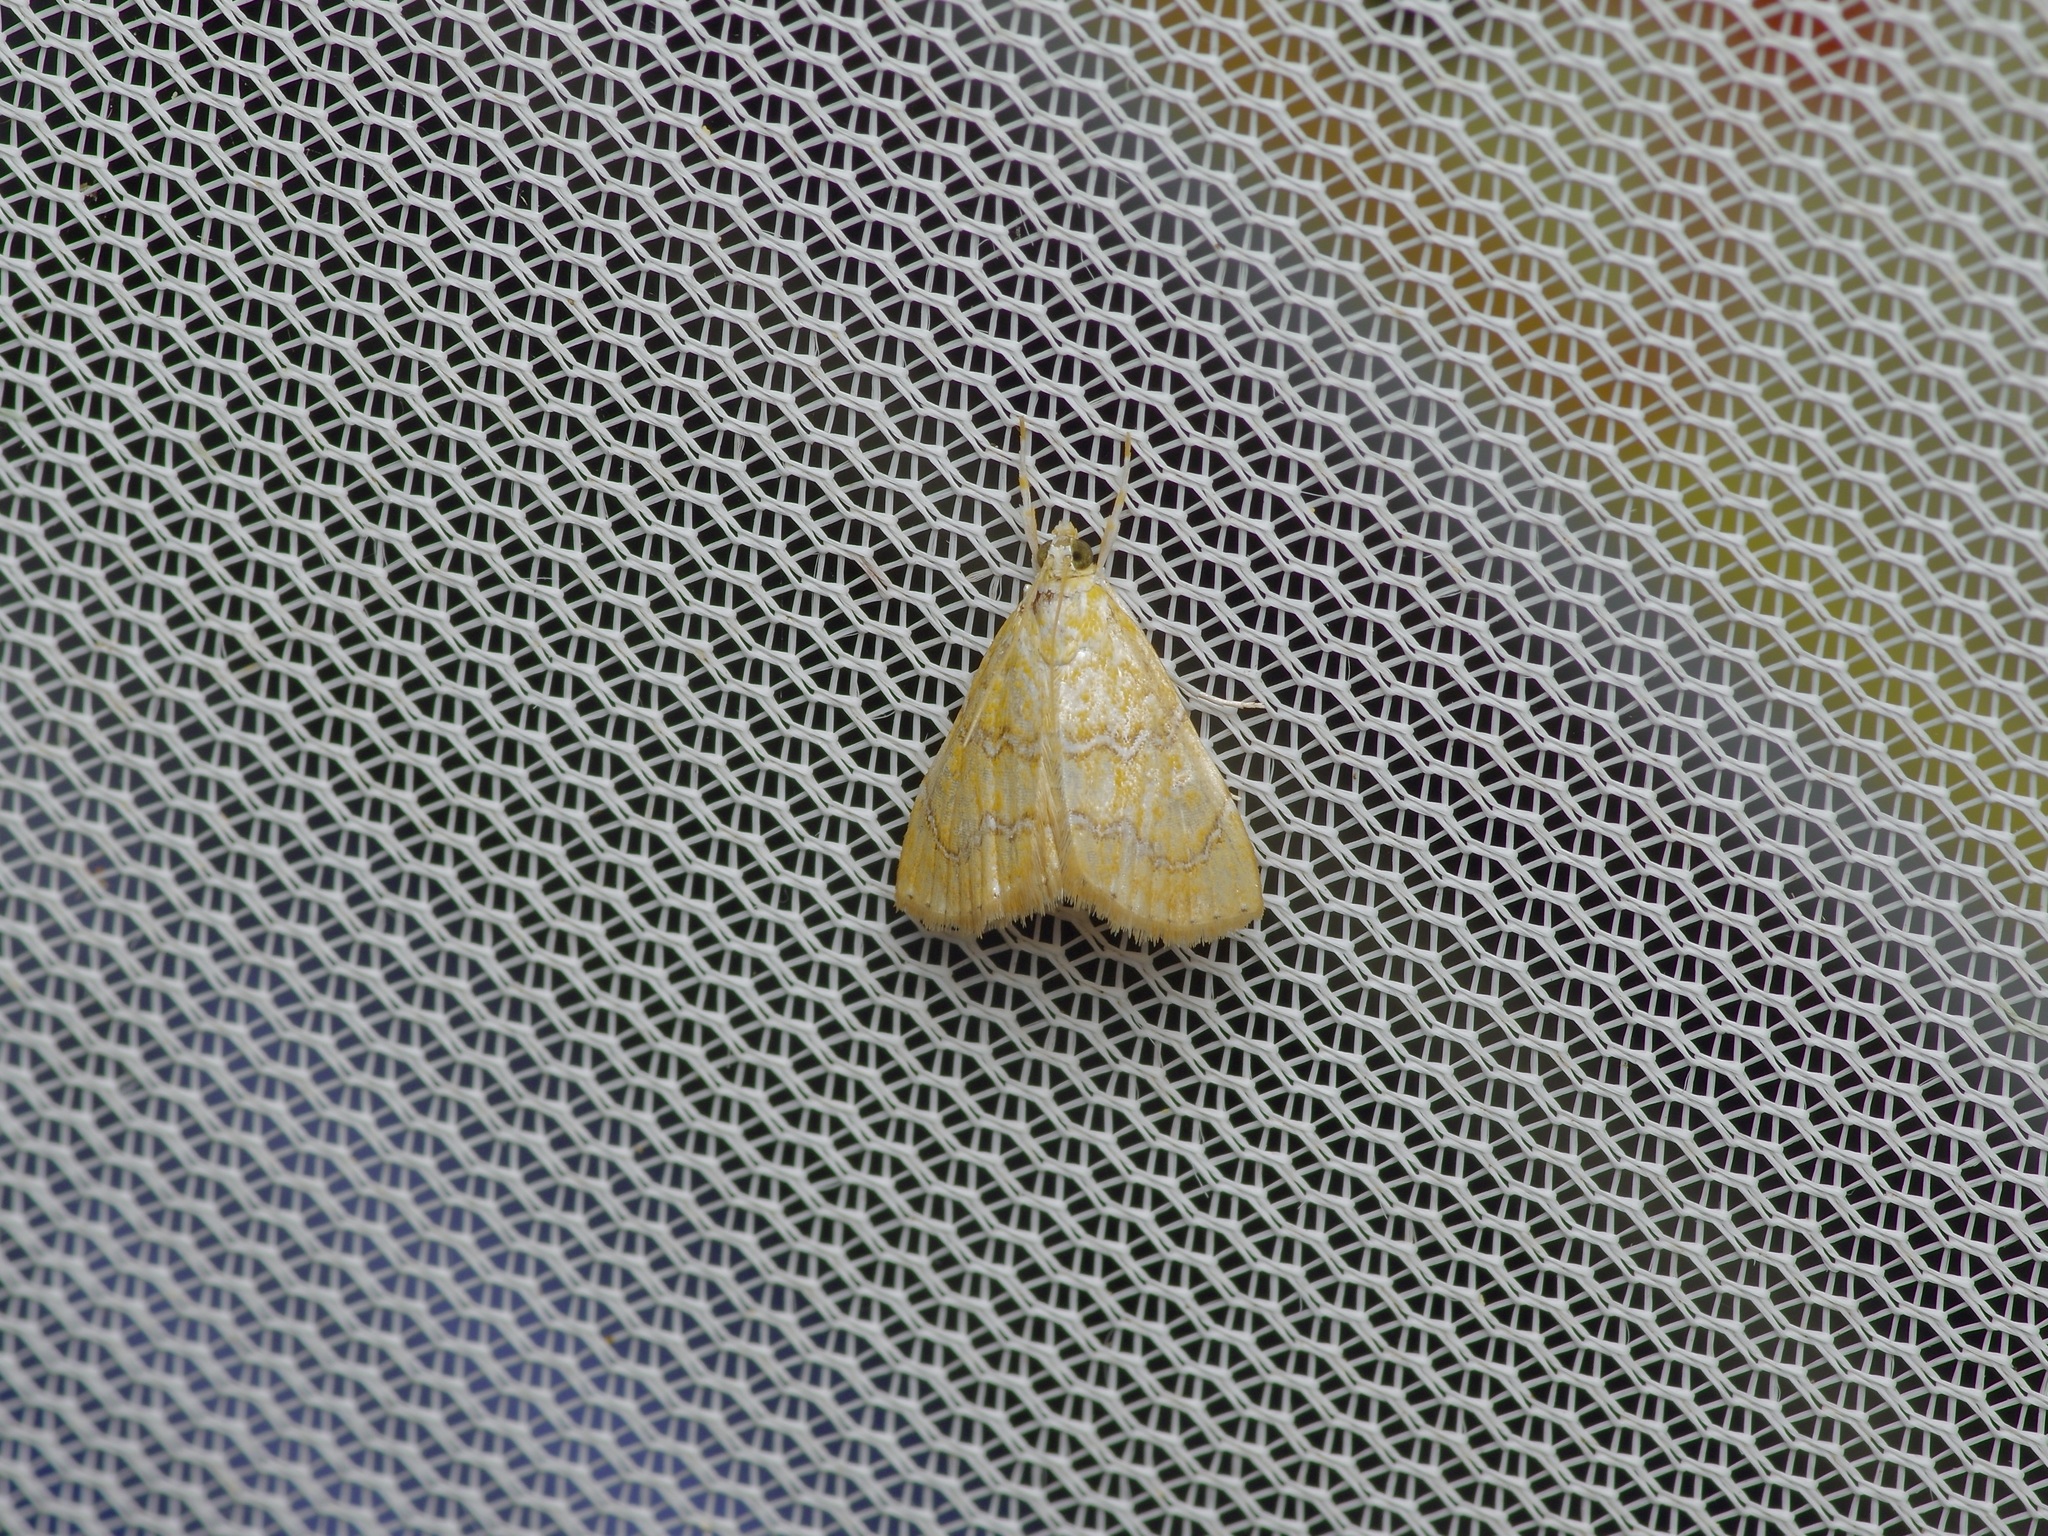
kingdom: Animalia
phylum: Arthropoda
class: Insecta
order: Lepidoptera
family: Crambidae
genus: Glaphyria
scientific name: Glaphyria sesquistrialis
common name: White-roped glaphyria
